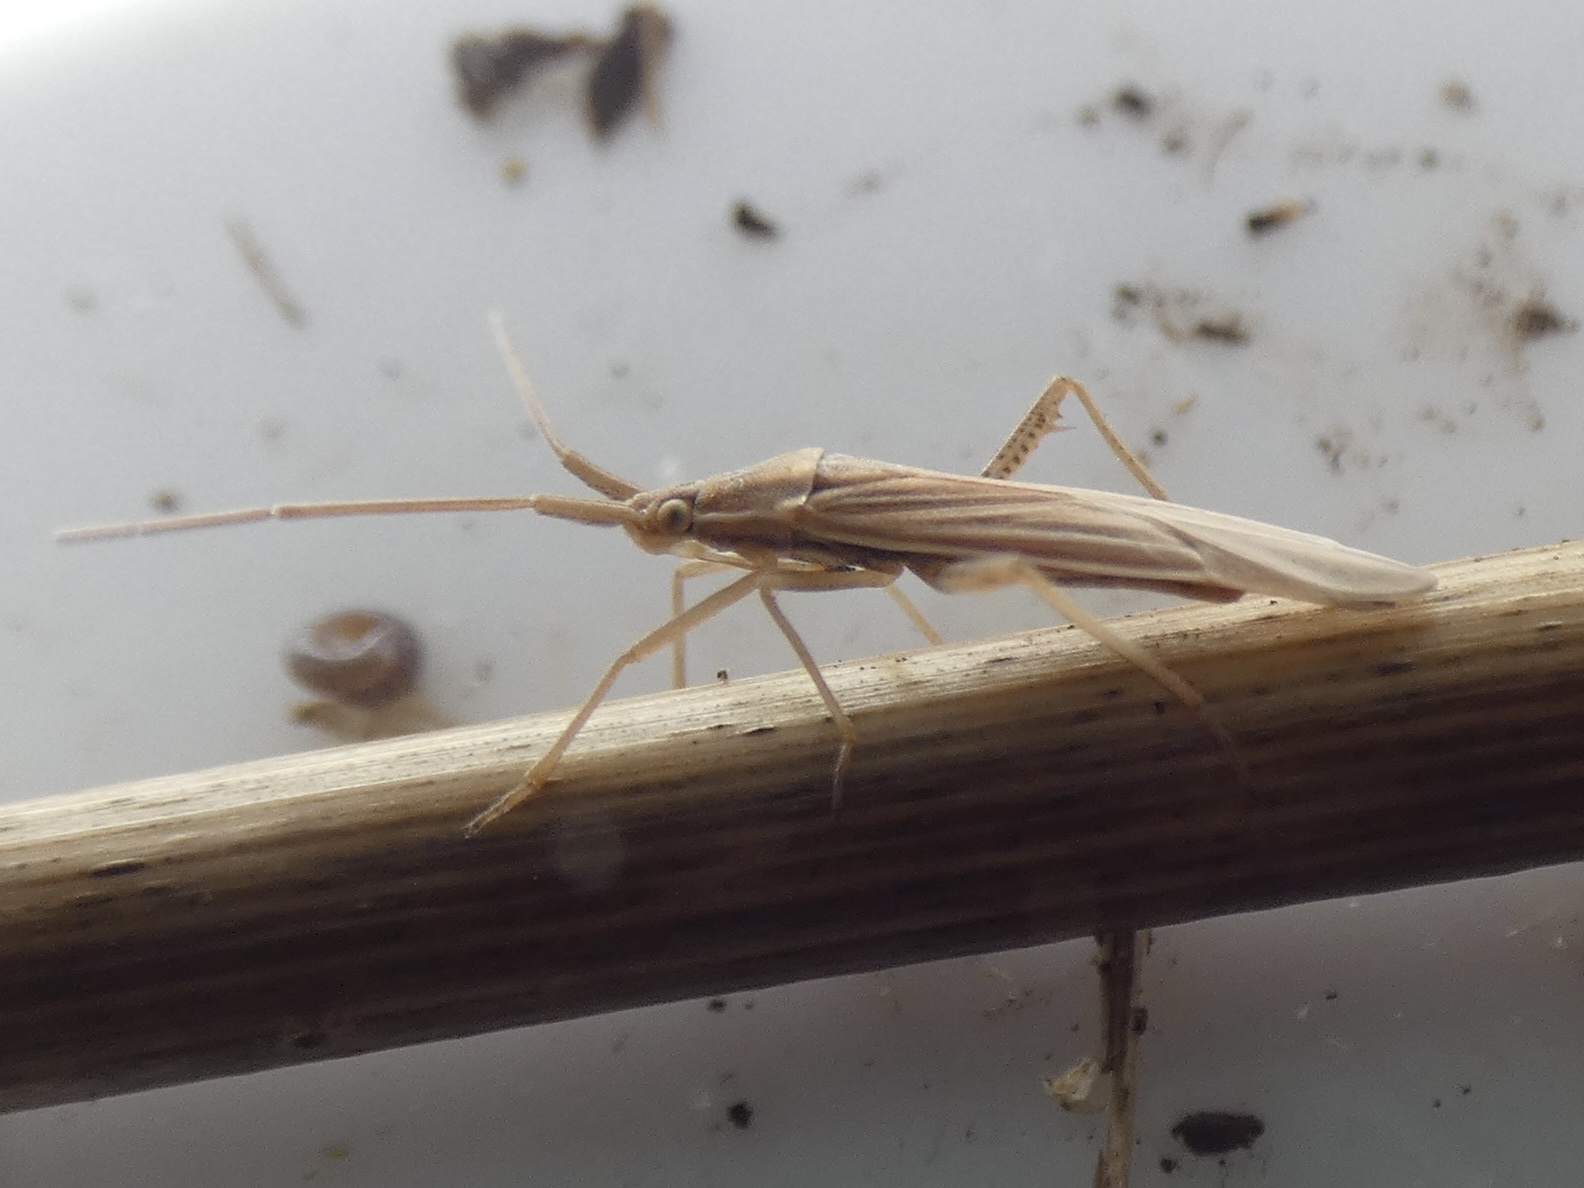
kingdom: Animalia
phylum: Arthropoda
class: Insecta
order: Hemiptera
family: Miridae
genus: Stenodema
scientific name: Stenodema calcarata
